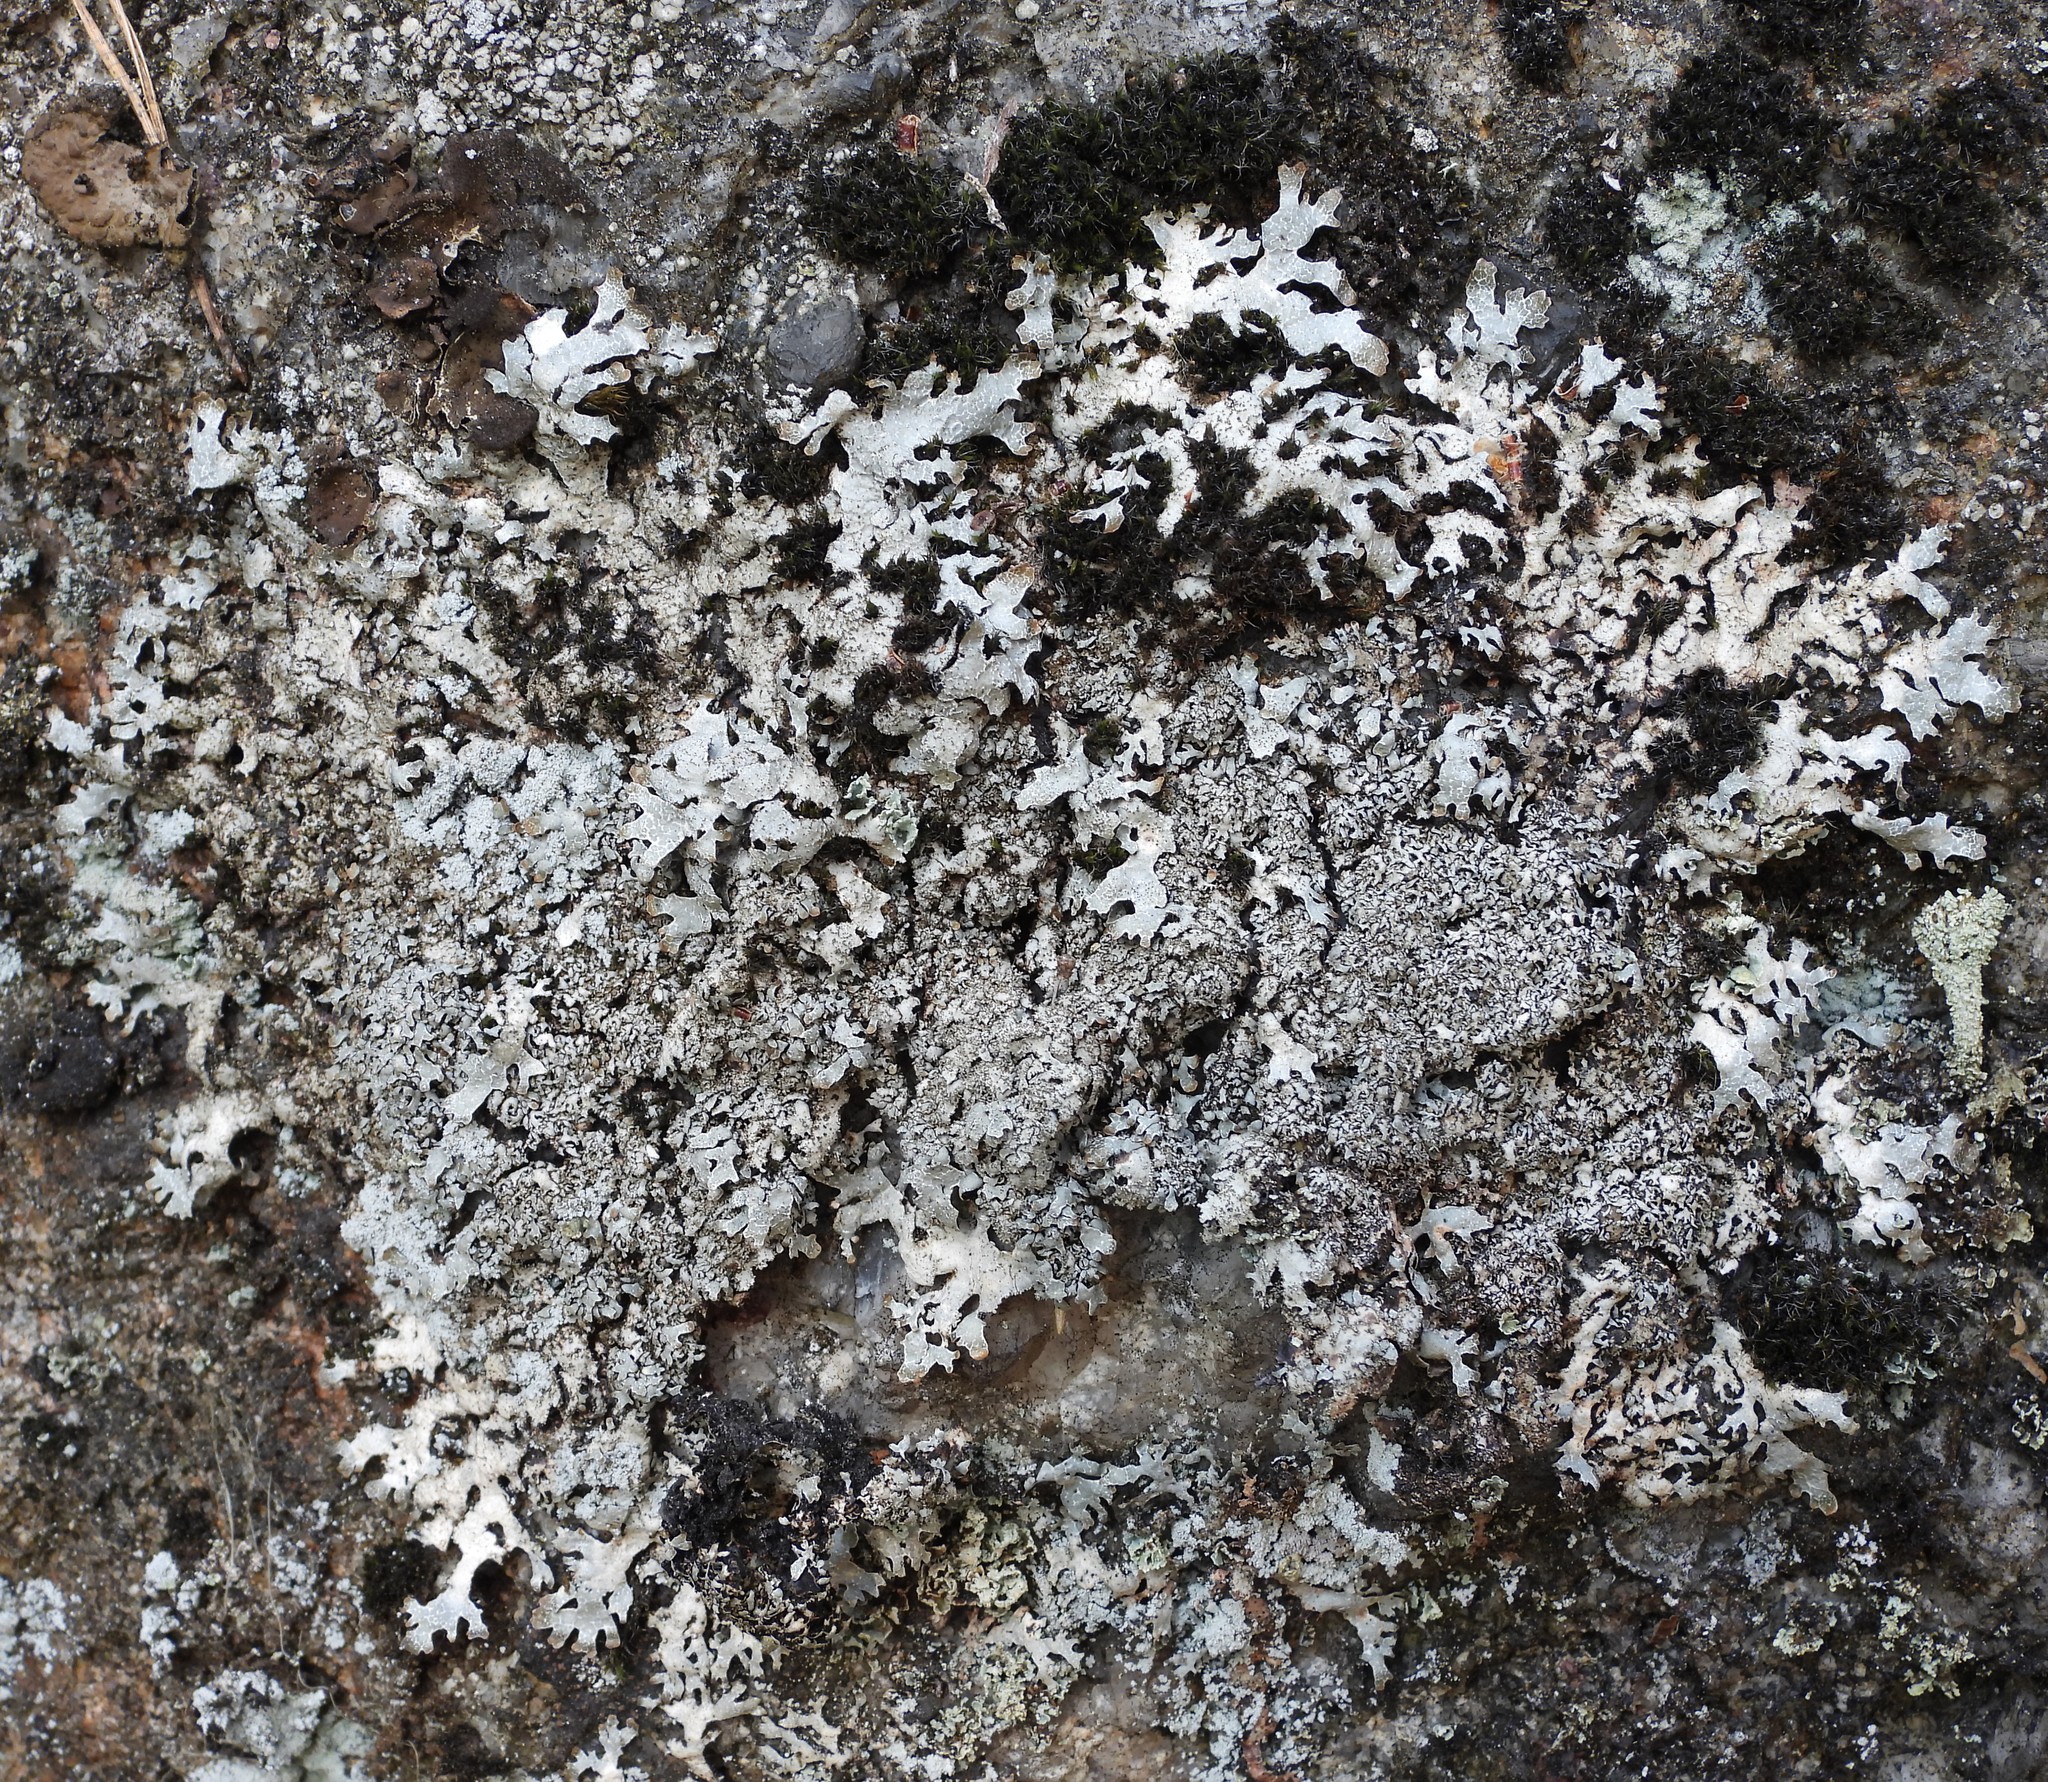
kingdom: Fungi
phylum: Ascomycota
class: Lecanoromycetes
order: Lecanorales
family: Parmeliaceae
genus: Parmelia
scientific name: Parmelia saxatilis
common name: Salted shield lichen
